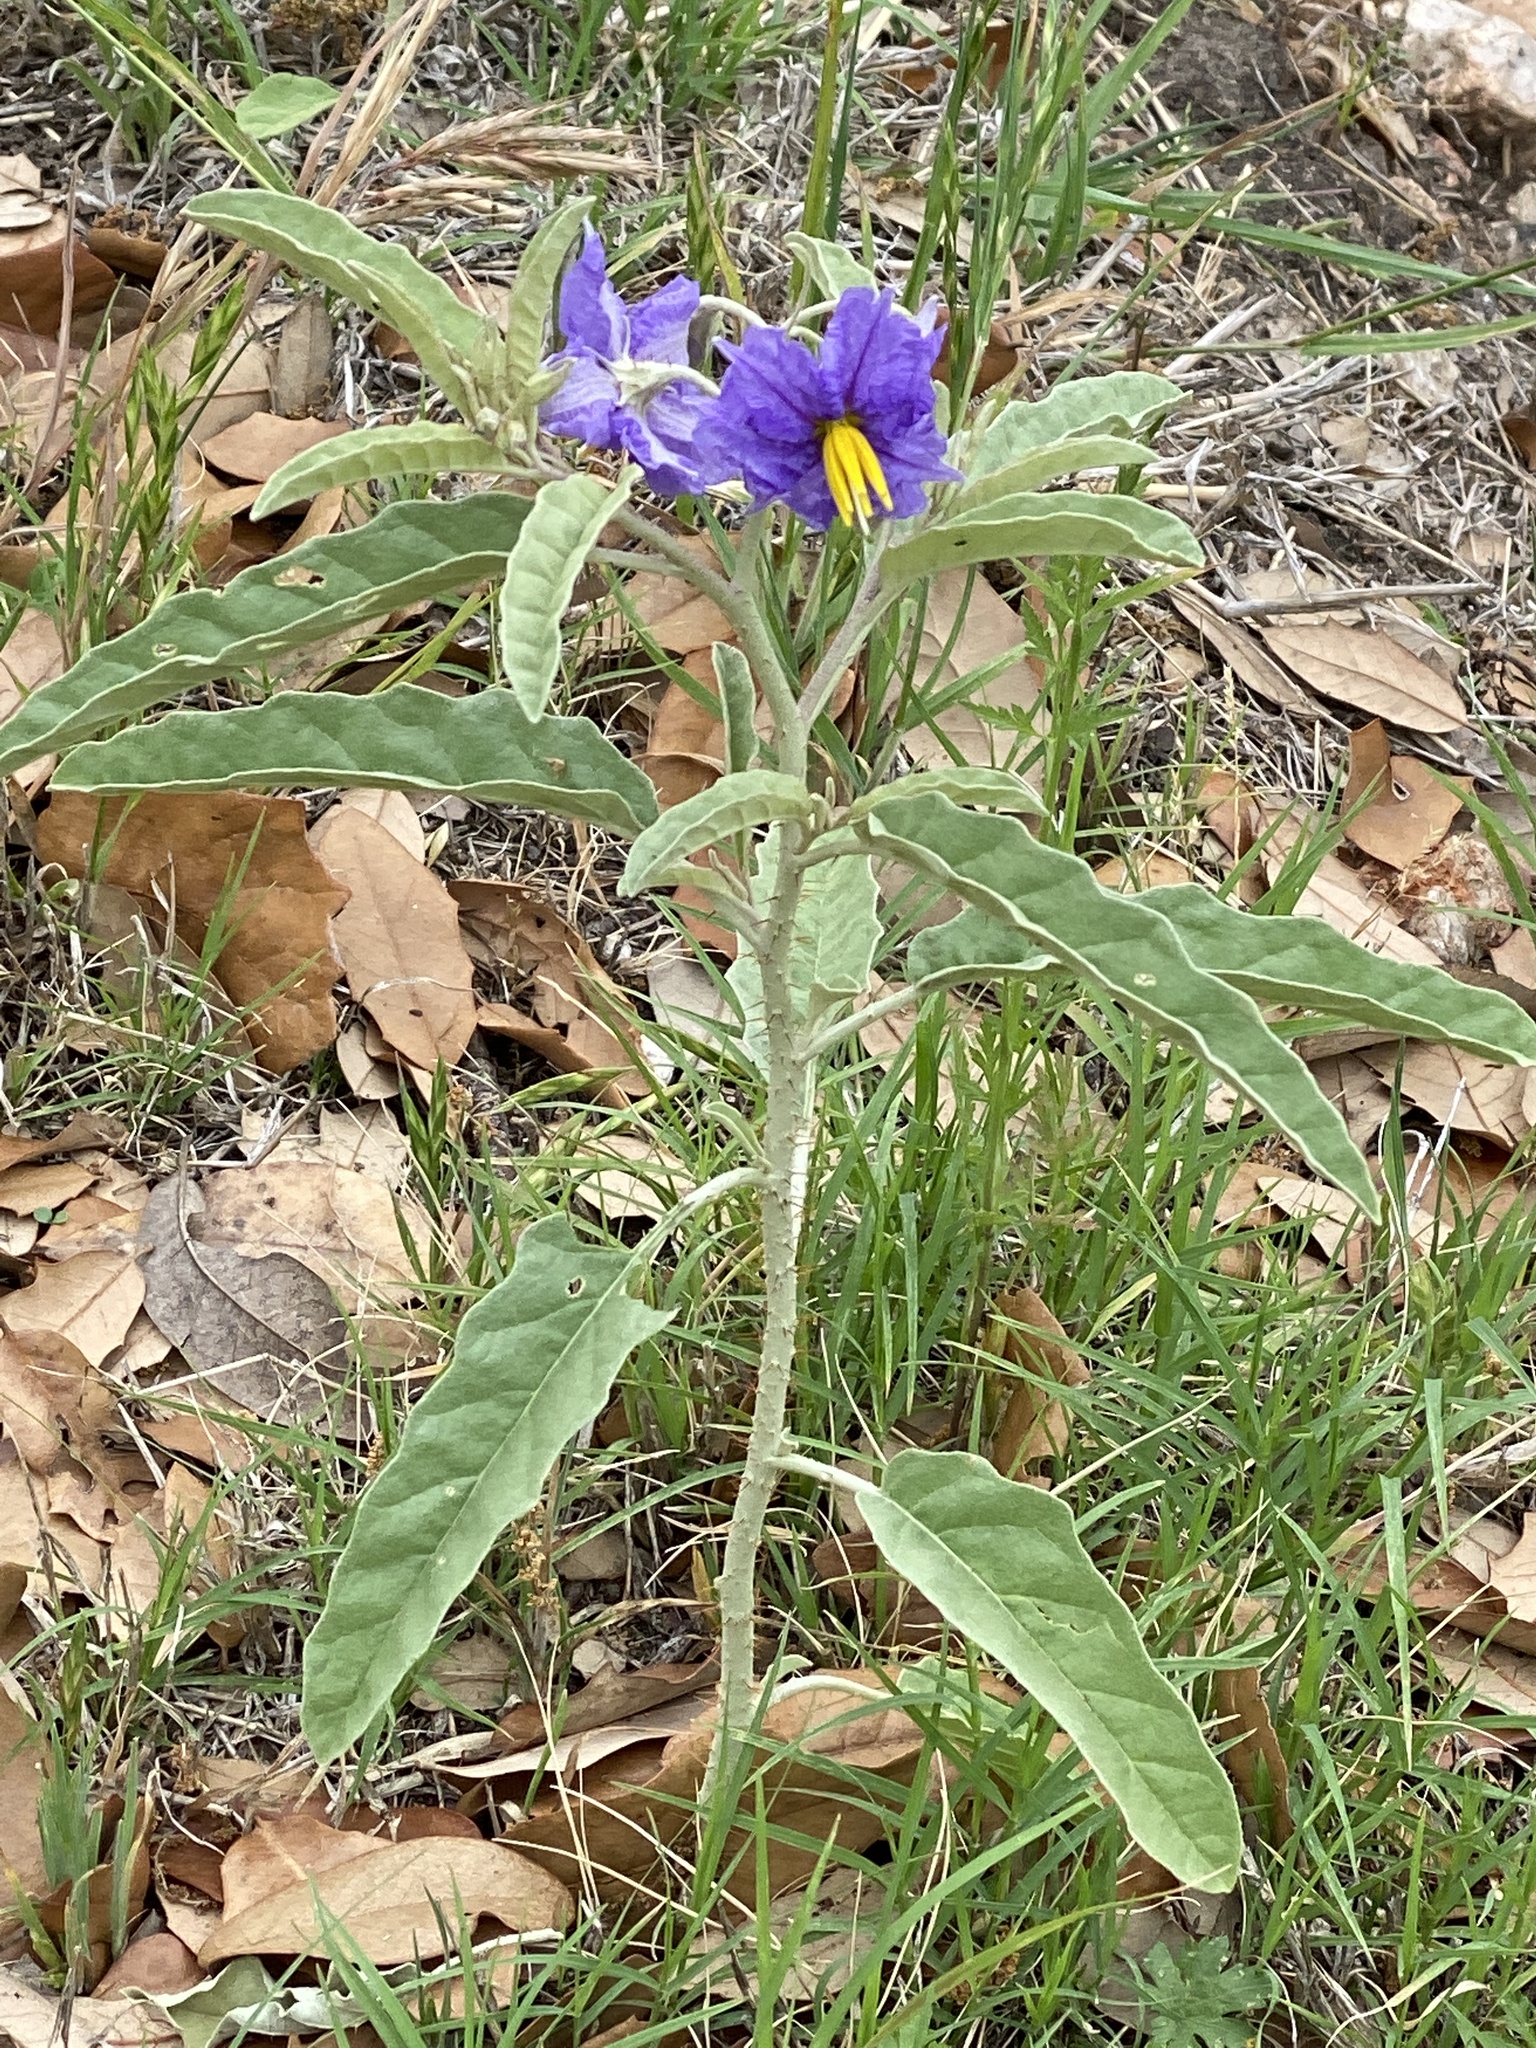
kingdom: Plantae
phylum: Tracheophyta
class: Magnoliopsida
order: Solanales
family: Solanaceae
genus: Solanum
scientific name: Solanum elaeagnifolium
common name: Silverleaf nightshade
